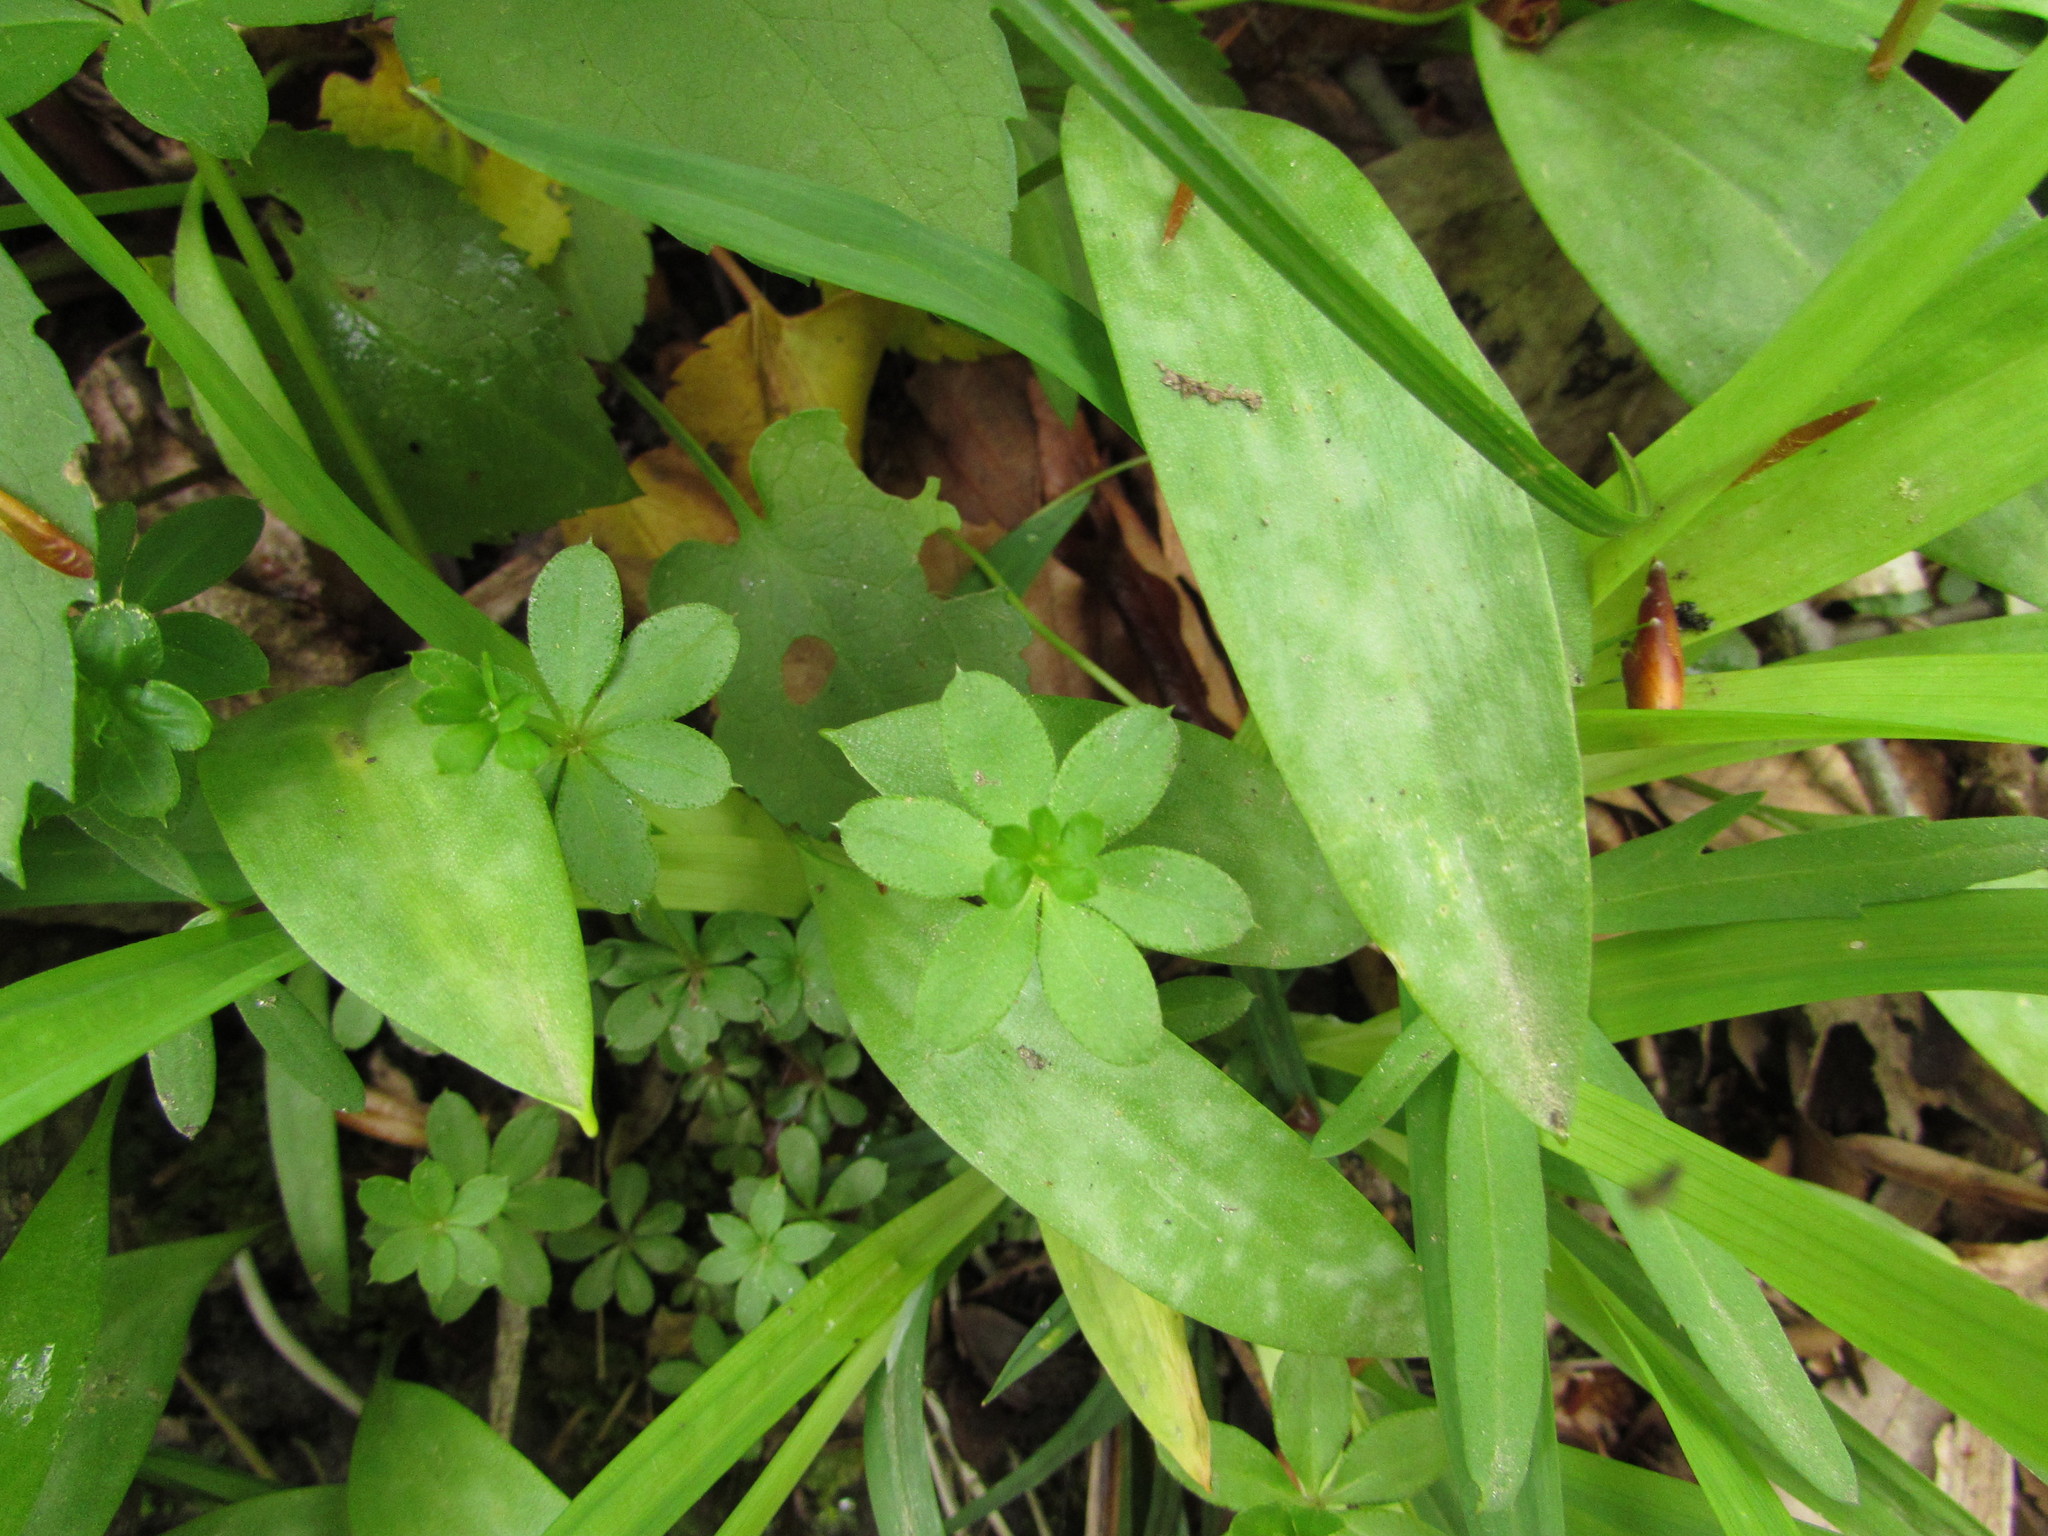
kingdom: Plantae
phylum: Tracheophyta
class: Magnoliopsida
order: Gentianales
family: Rubiaceae
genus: Galium
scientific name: Galium triflorum
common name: Fragrant bedstraw
